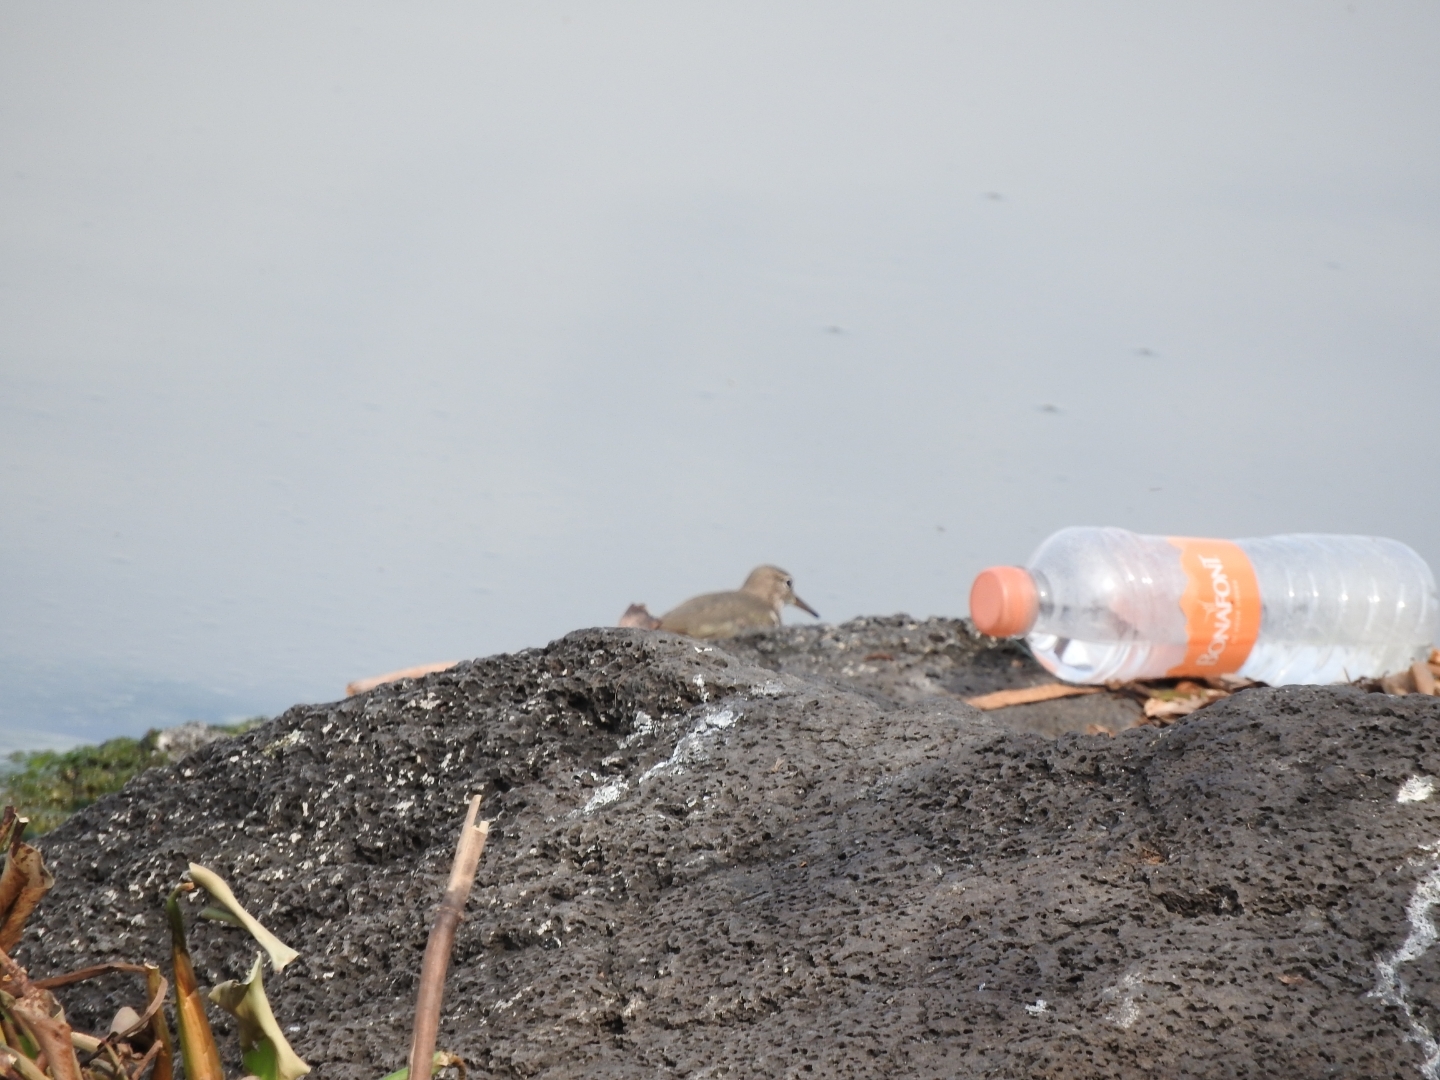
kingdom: Animalia
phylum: Chordata
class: Aves
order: Charadriiformes
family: Scolopacidae
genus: Actitis
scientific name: Actitis macularius
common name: Spotted sandpiper
